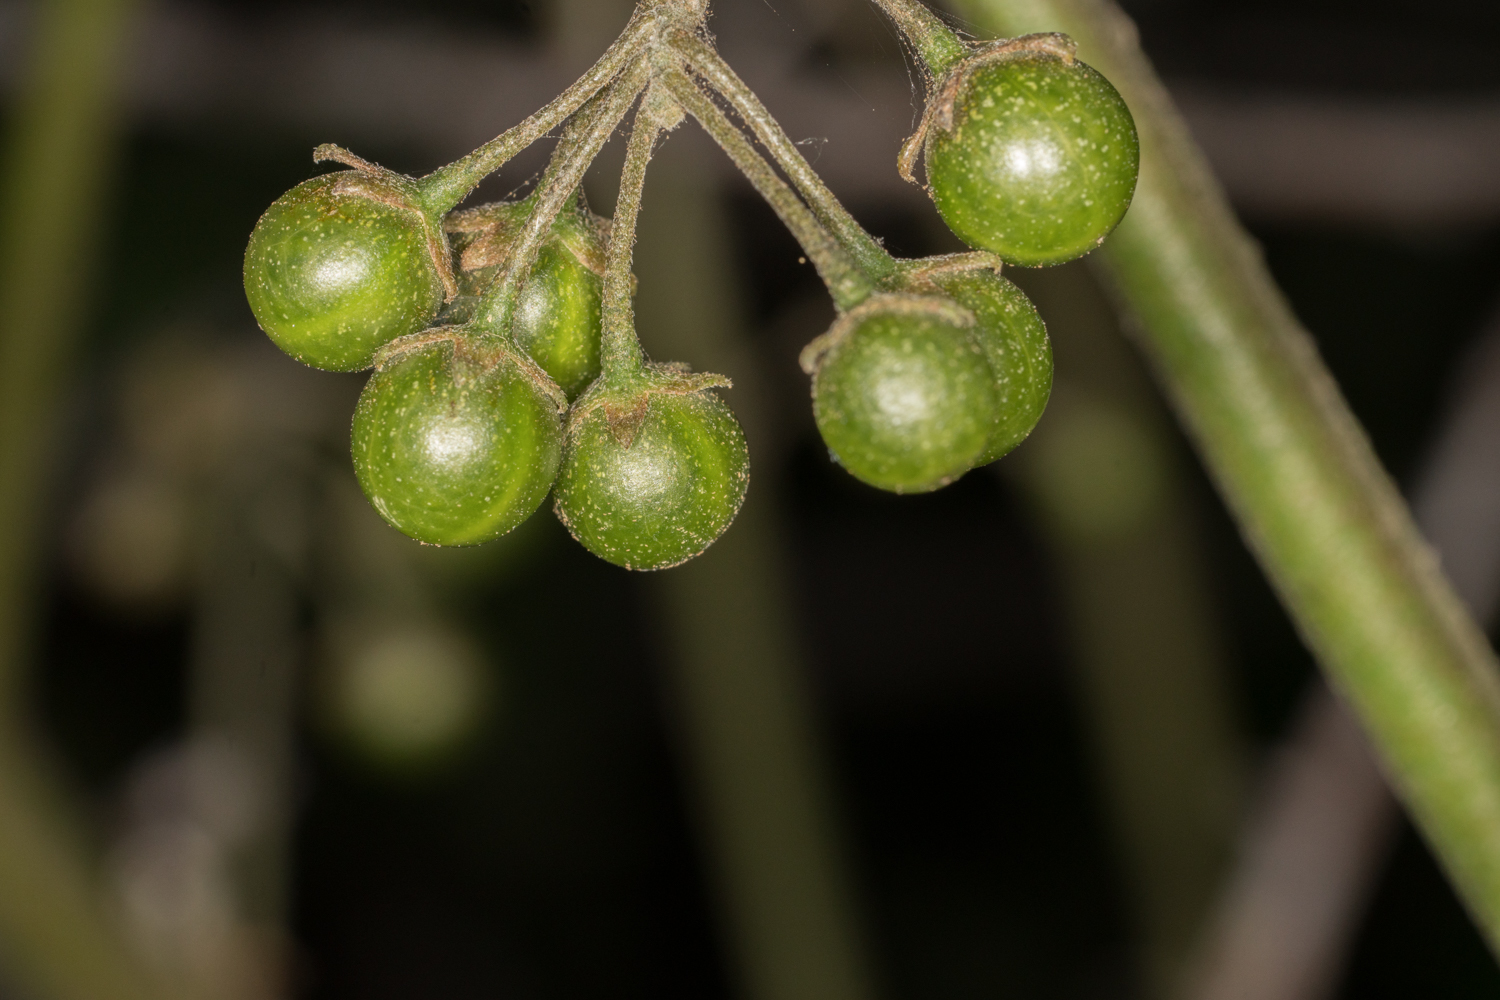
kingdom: Plantae
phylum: Tracheophyta
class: Magnoliopsida
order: Solanales
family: Solanaceae
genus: Solanum
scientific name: Solanum douglasii
